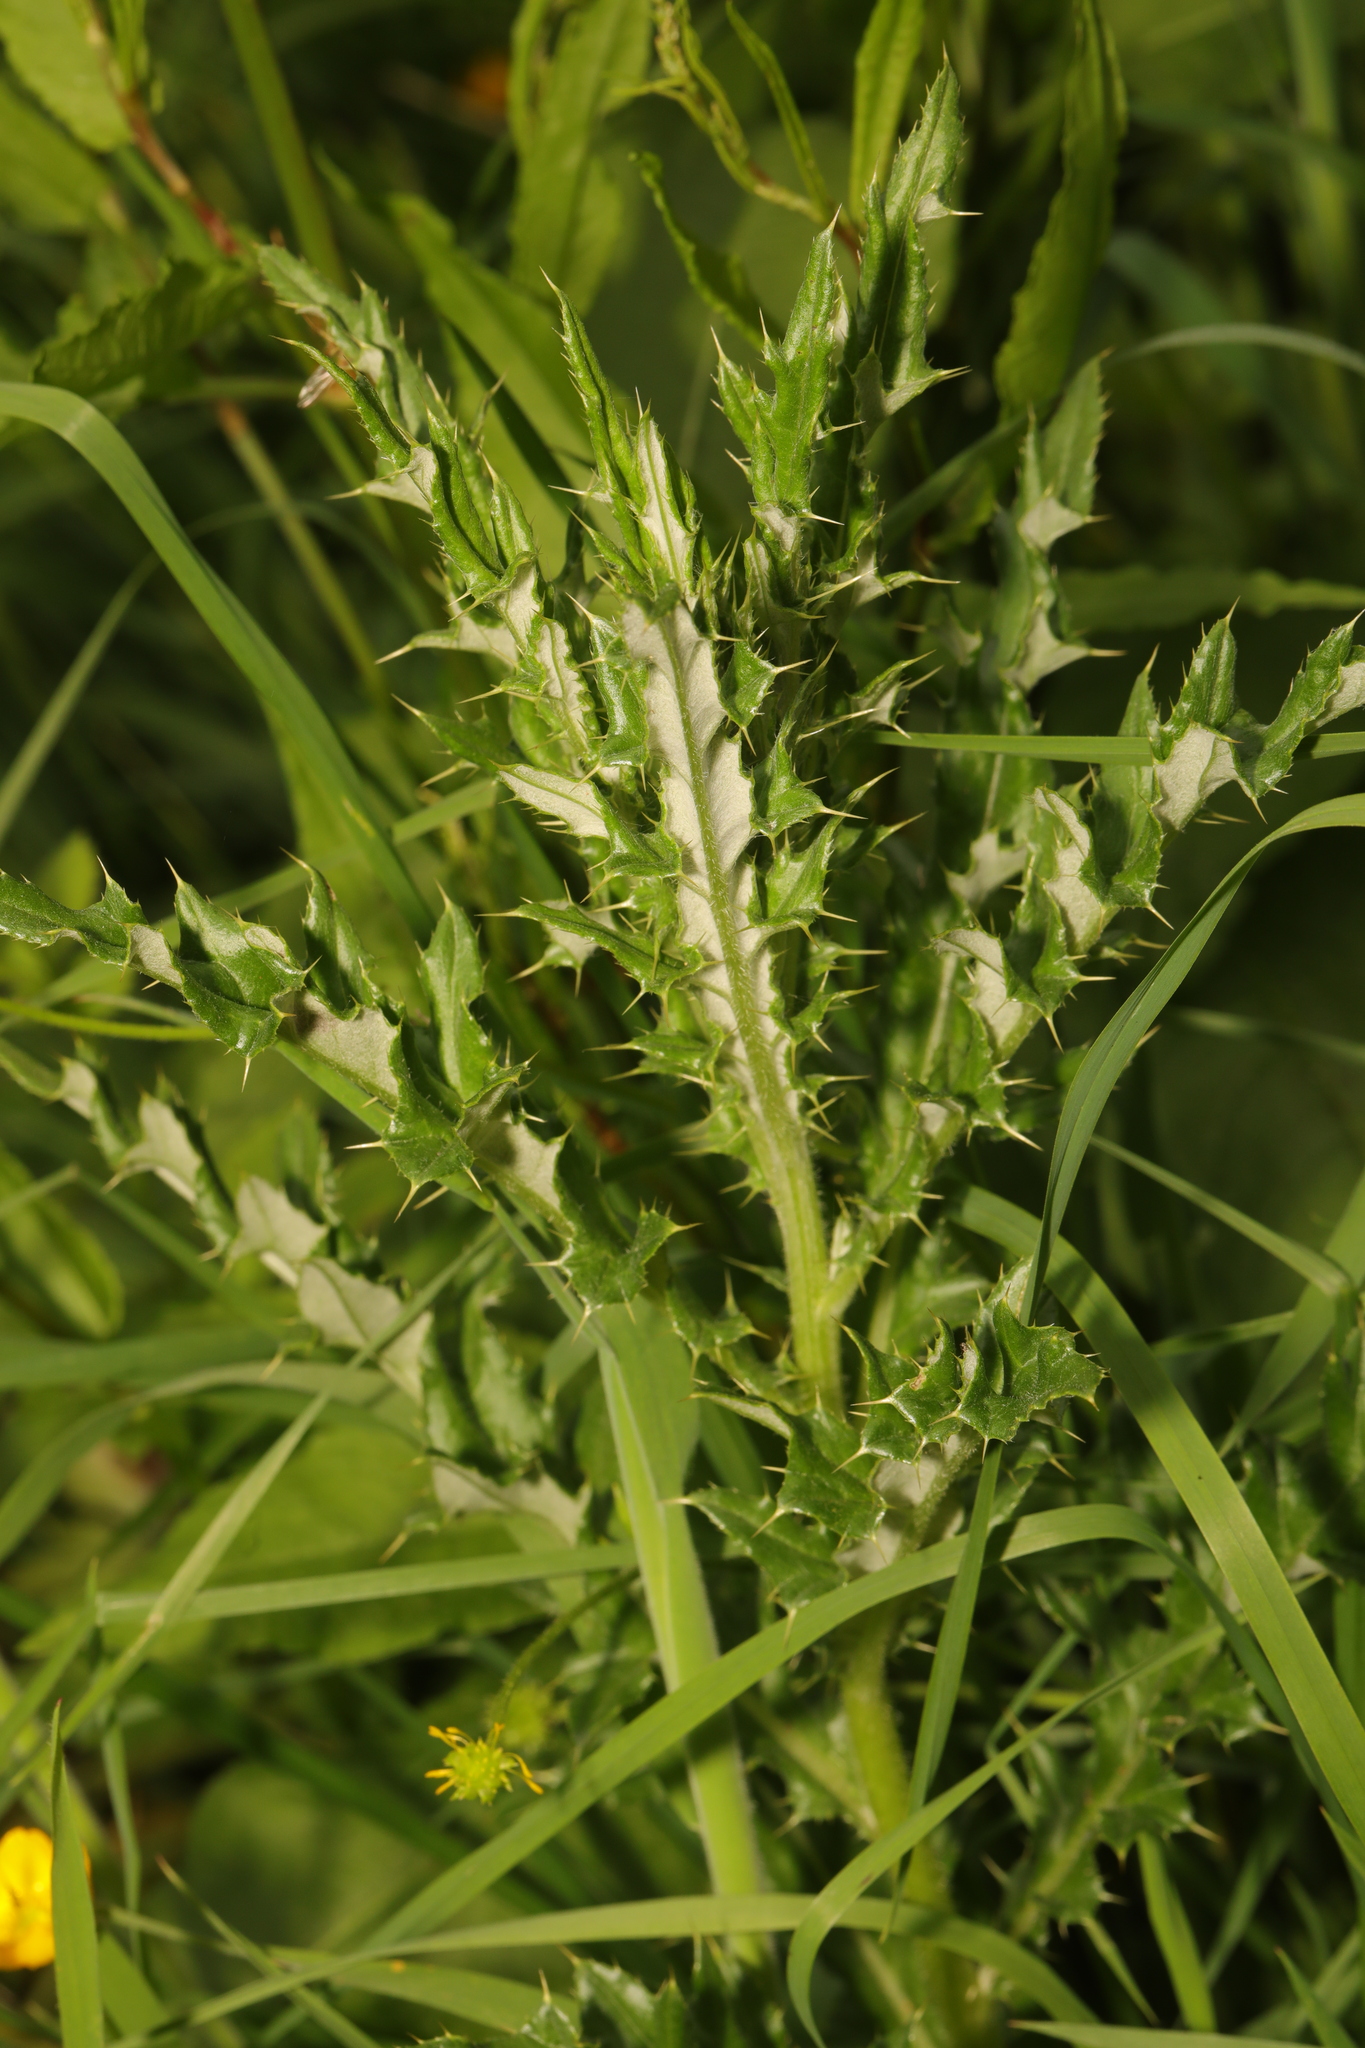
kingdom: Plantae
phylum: Tracheophyta
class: Magnoliopsida
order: Asterales
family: Asteraceae
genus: Cirsium
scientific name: Cirsium arvense
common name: Creeping thistle
